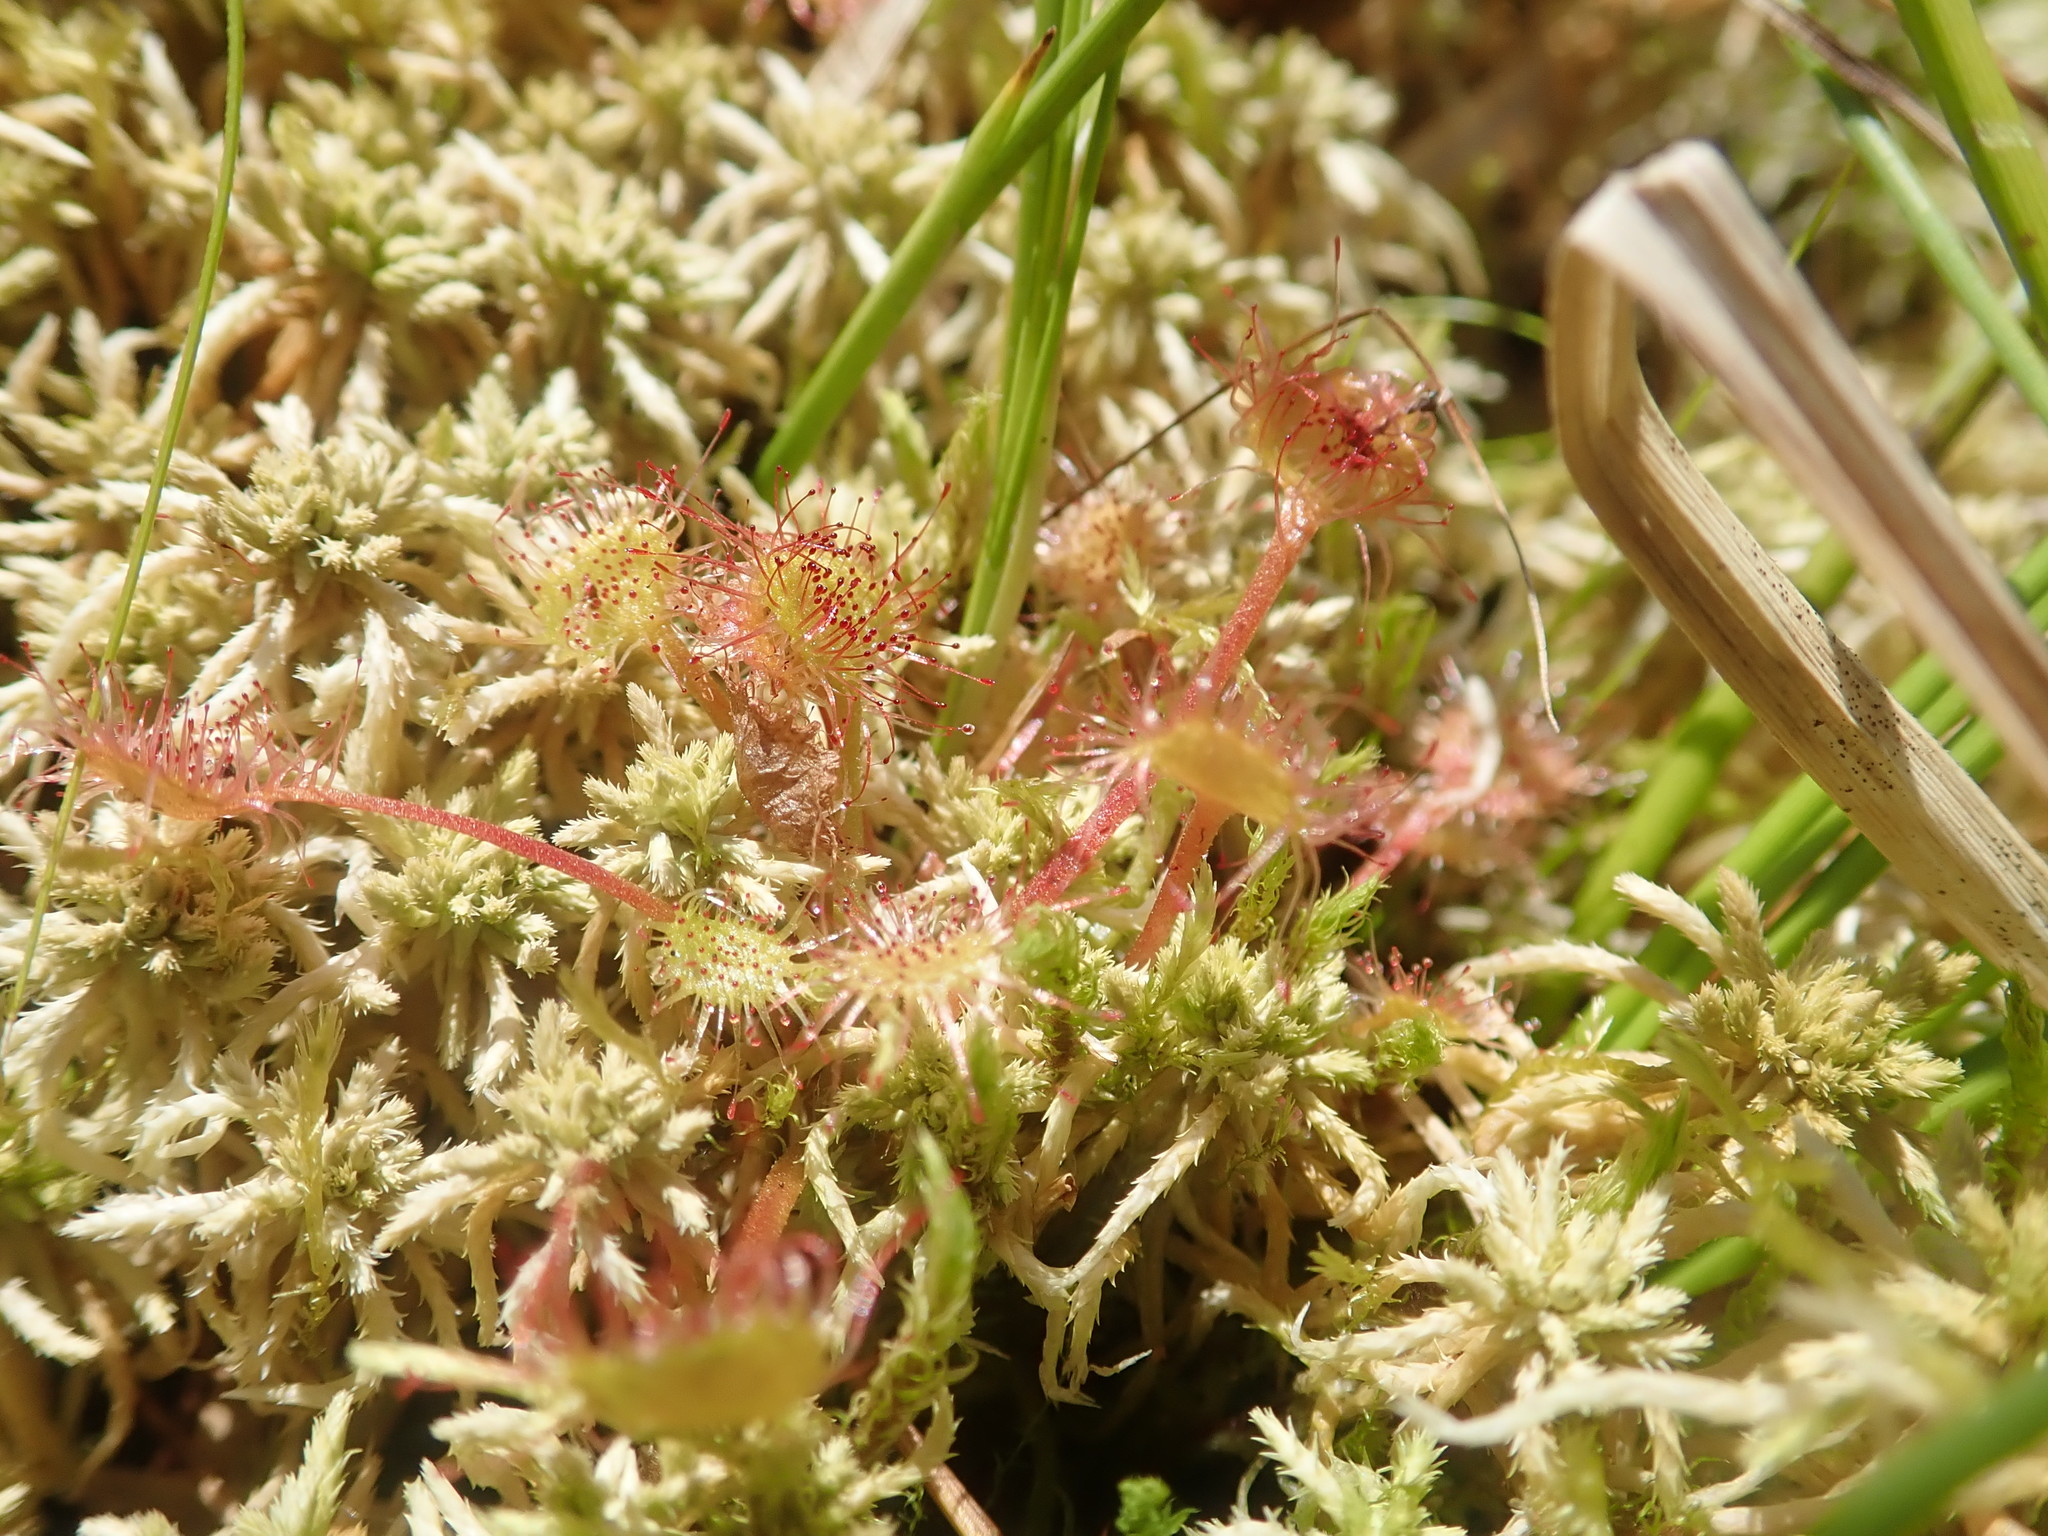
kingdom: Plantae
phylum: Tracheophyta
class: Magnoliopsida
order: Caryophyllales
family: Droseraceae
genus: Drosera
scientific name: Drosera rotundifolia
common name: Round-leaved sundew
